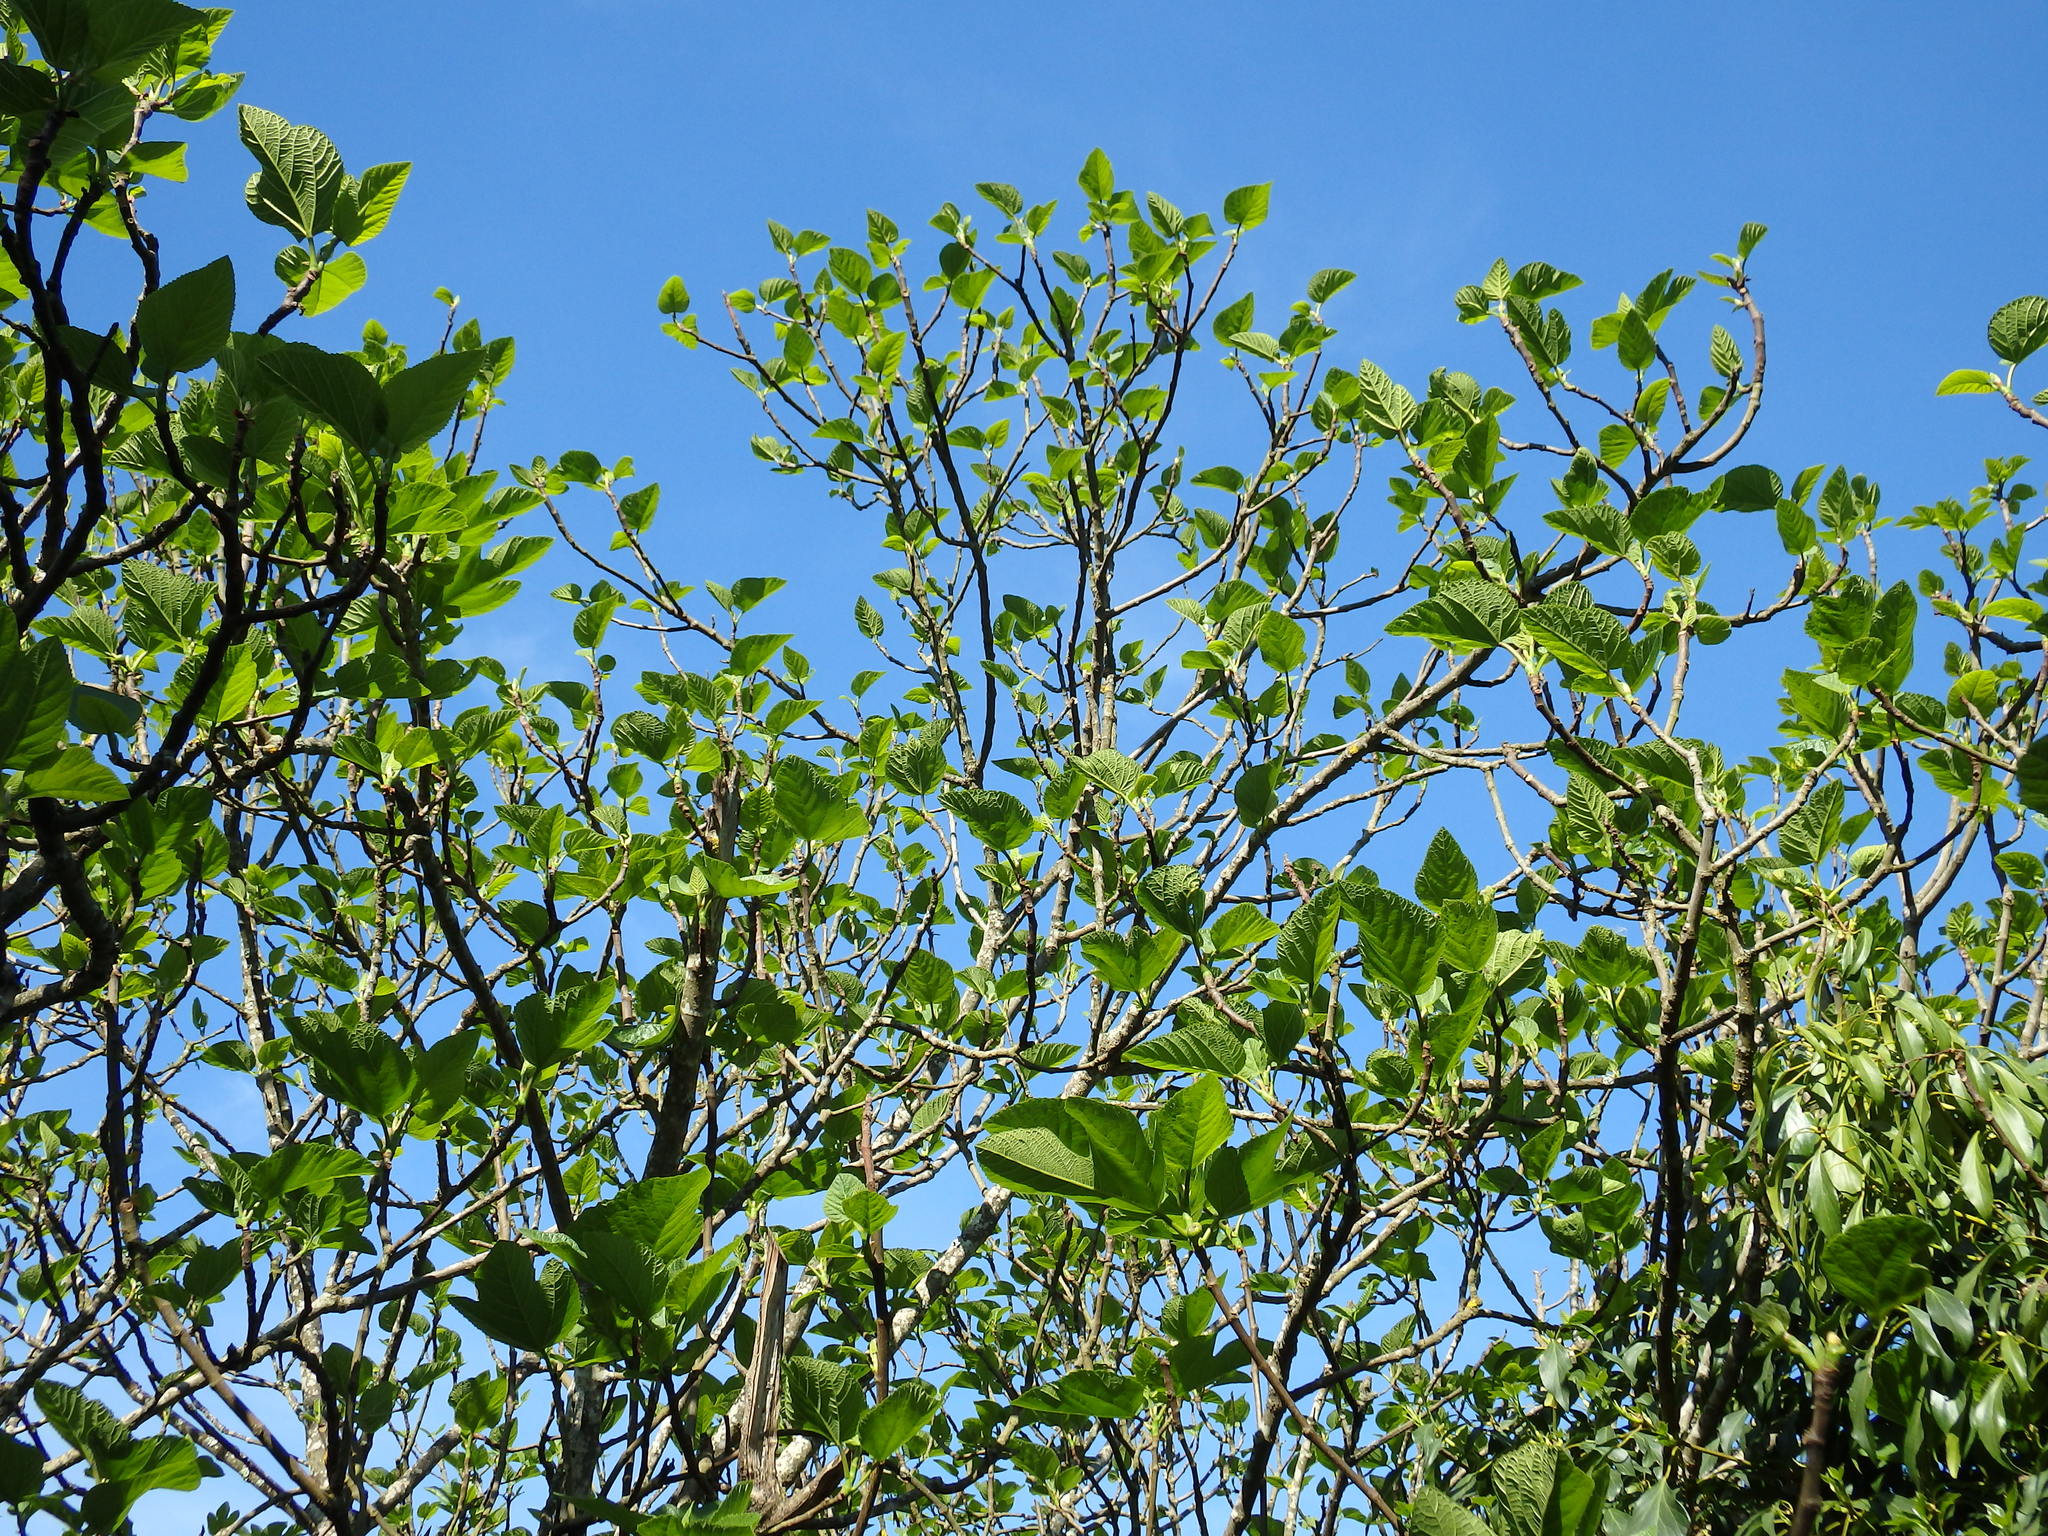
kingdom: Plantae
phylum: Tracheophyta
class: Magnoliopsida
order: Rosales
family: Moraceae
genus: Ficus
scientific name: Ficus carica
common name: Fig
